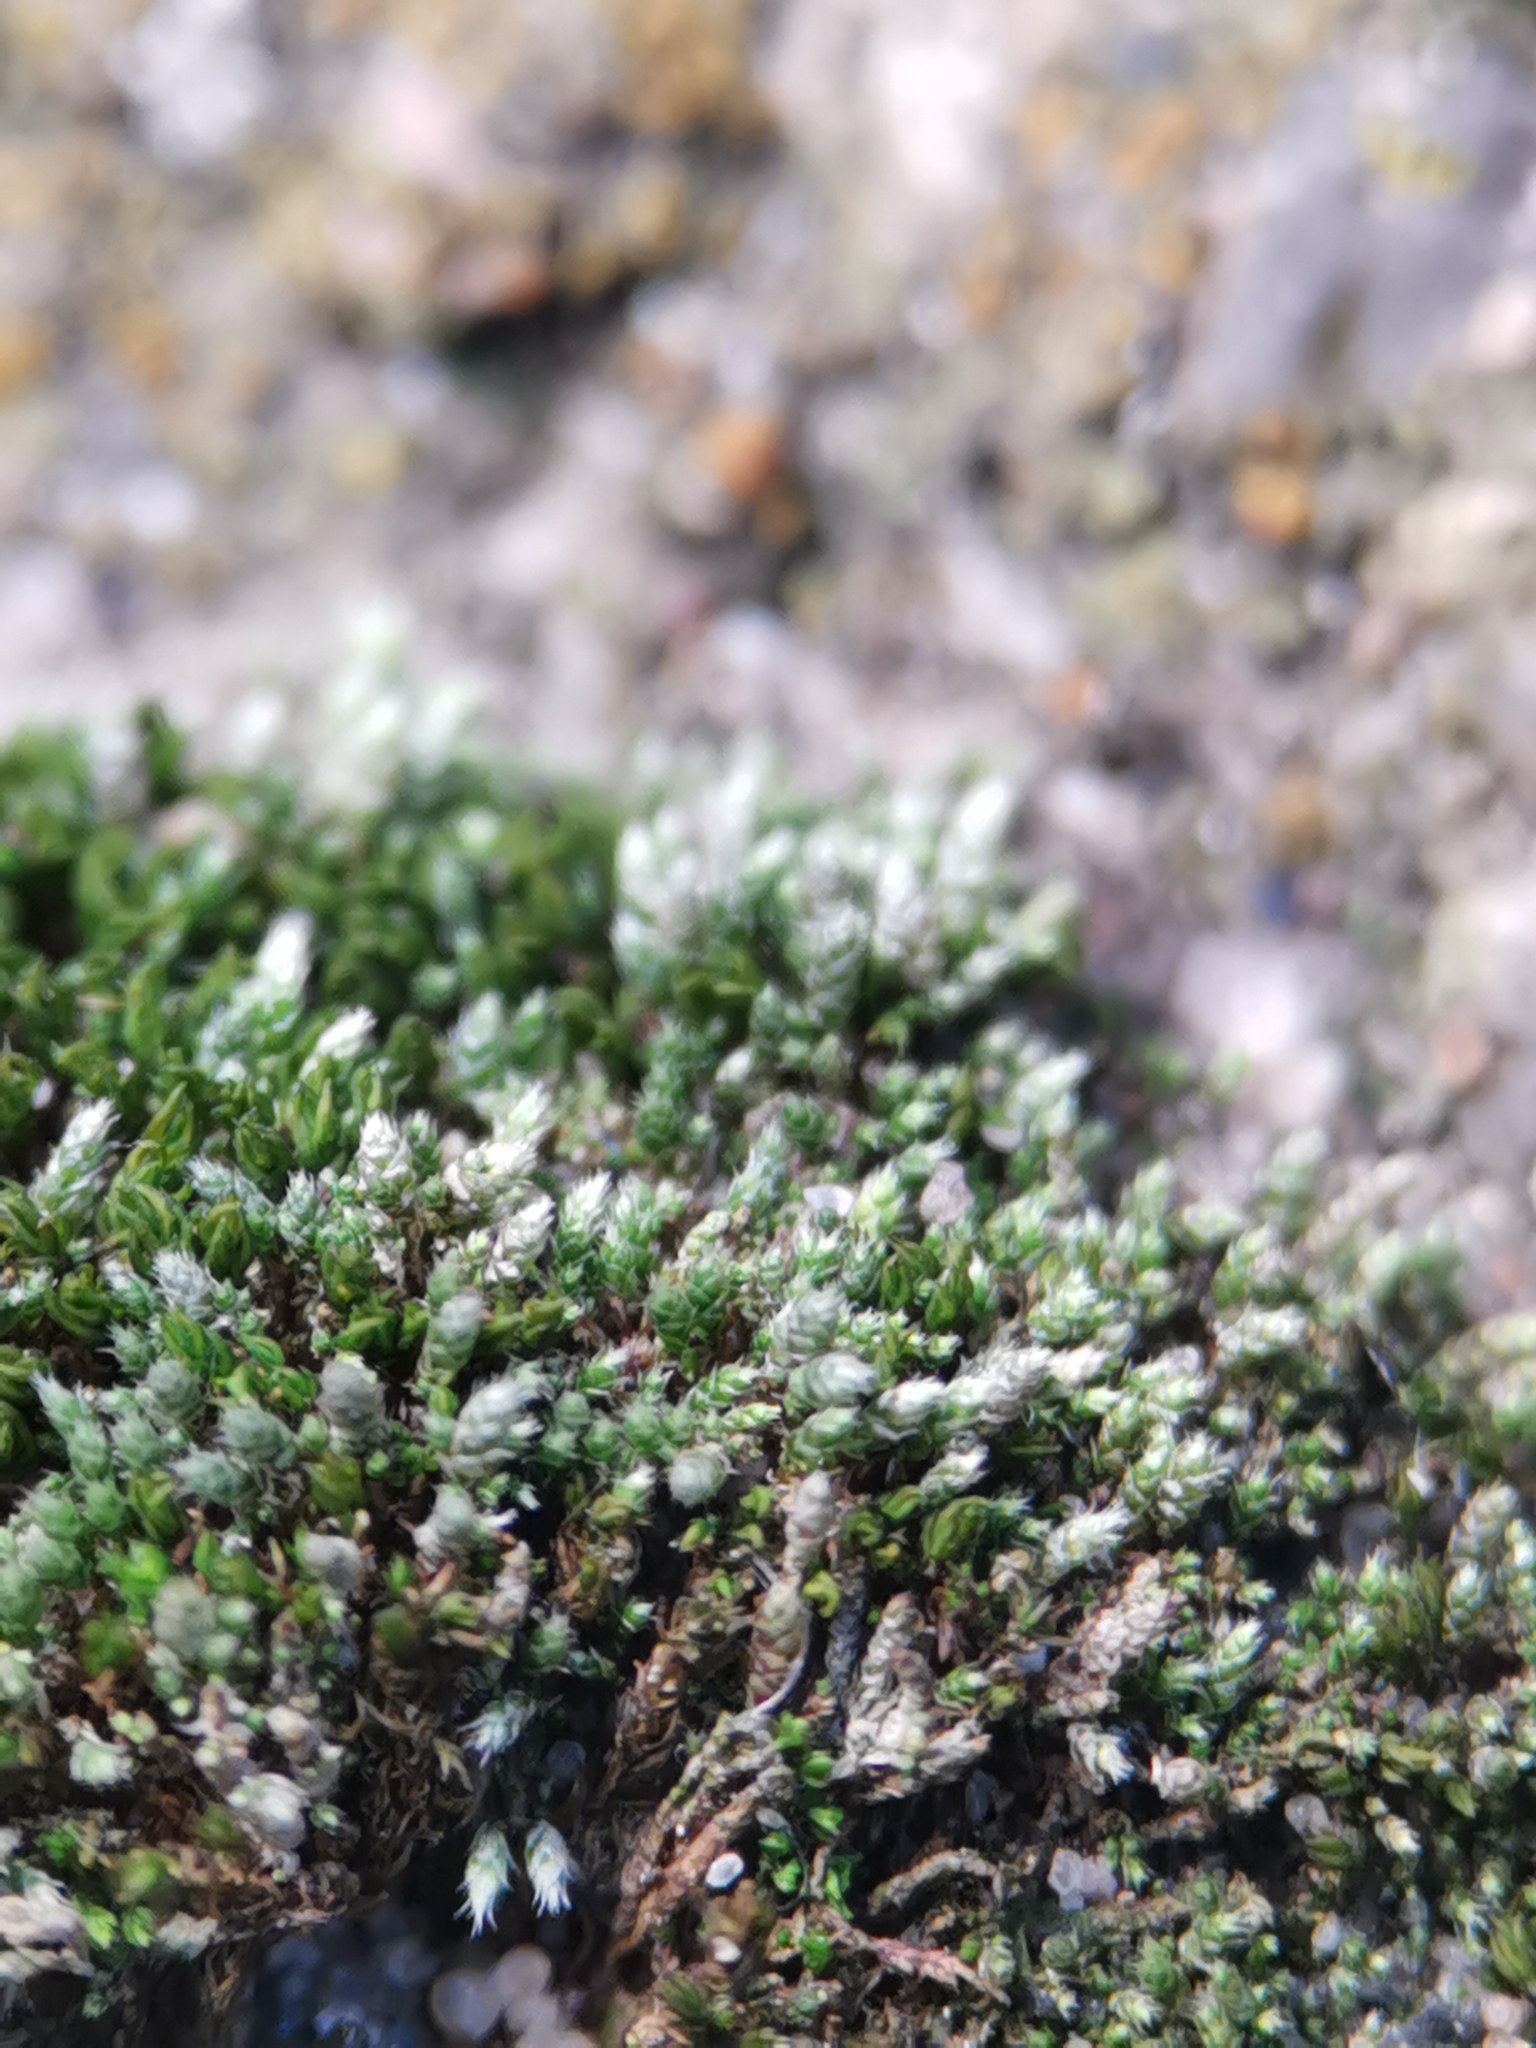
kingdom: Plantae
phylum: Bryophyta
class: Bryopsida
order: Bryales
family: Bryaceae
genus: Bryum
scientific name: Bryum argenteum
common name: Silver-moss
